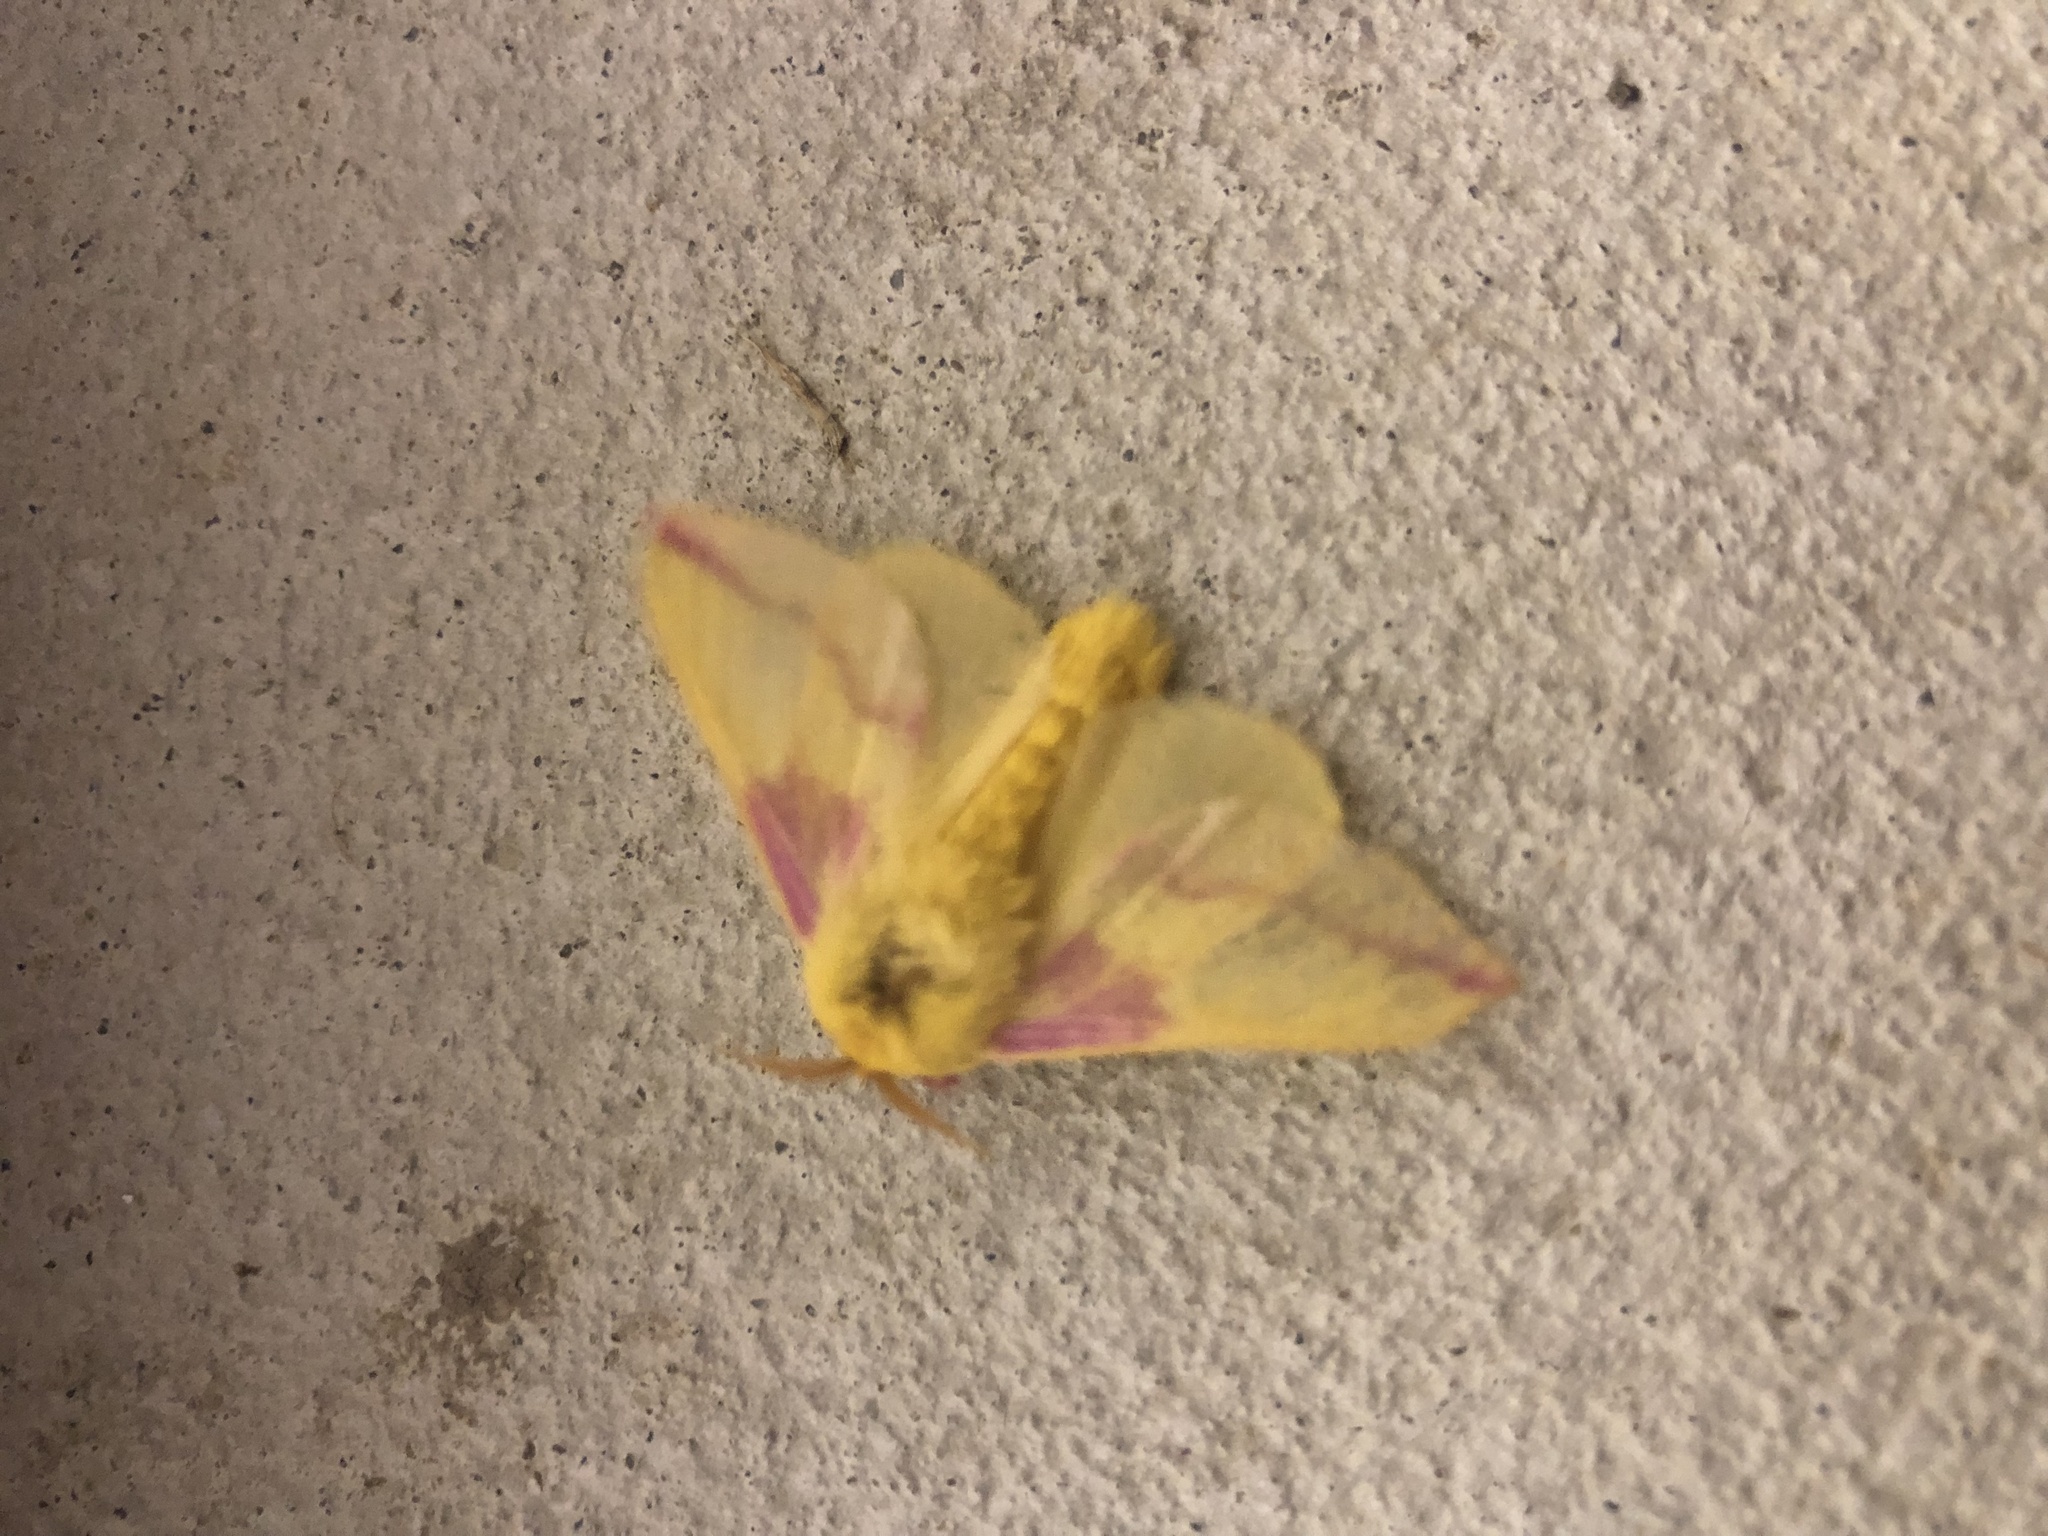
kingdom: Animalia
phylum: Arthropoda
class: Insecta
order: Lepidoptera
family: Saturniidae
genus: Dryocampa
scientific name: Dryocampa rubicunda
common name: Rosy maple moth
